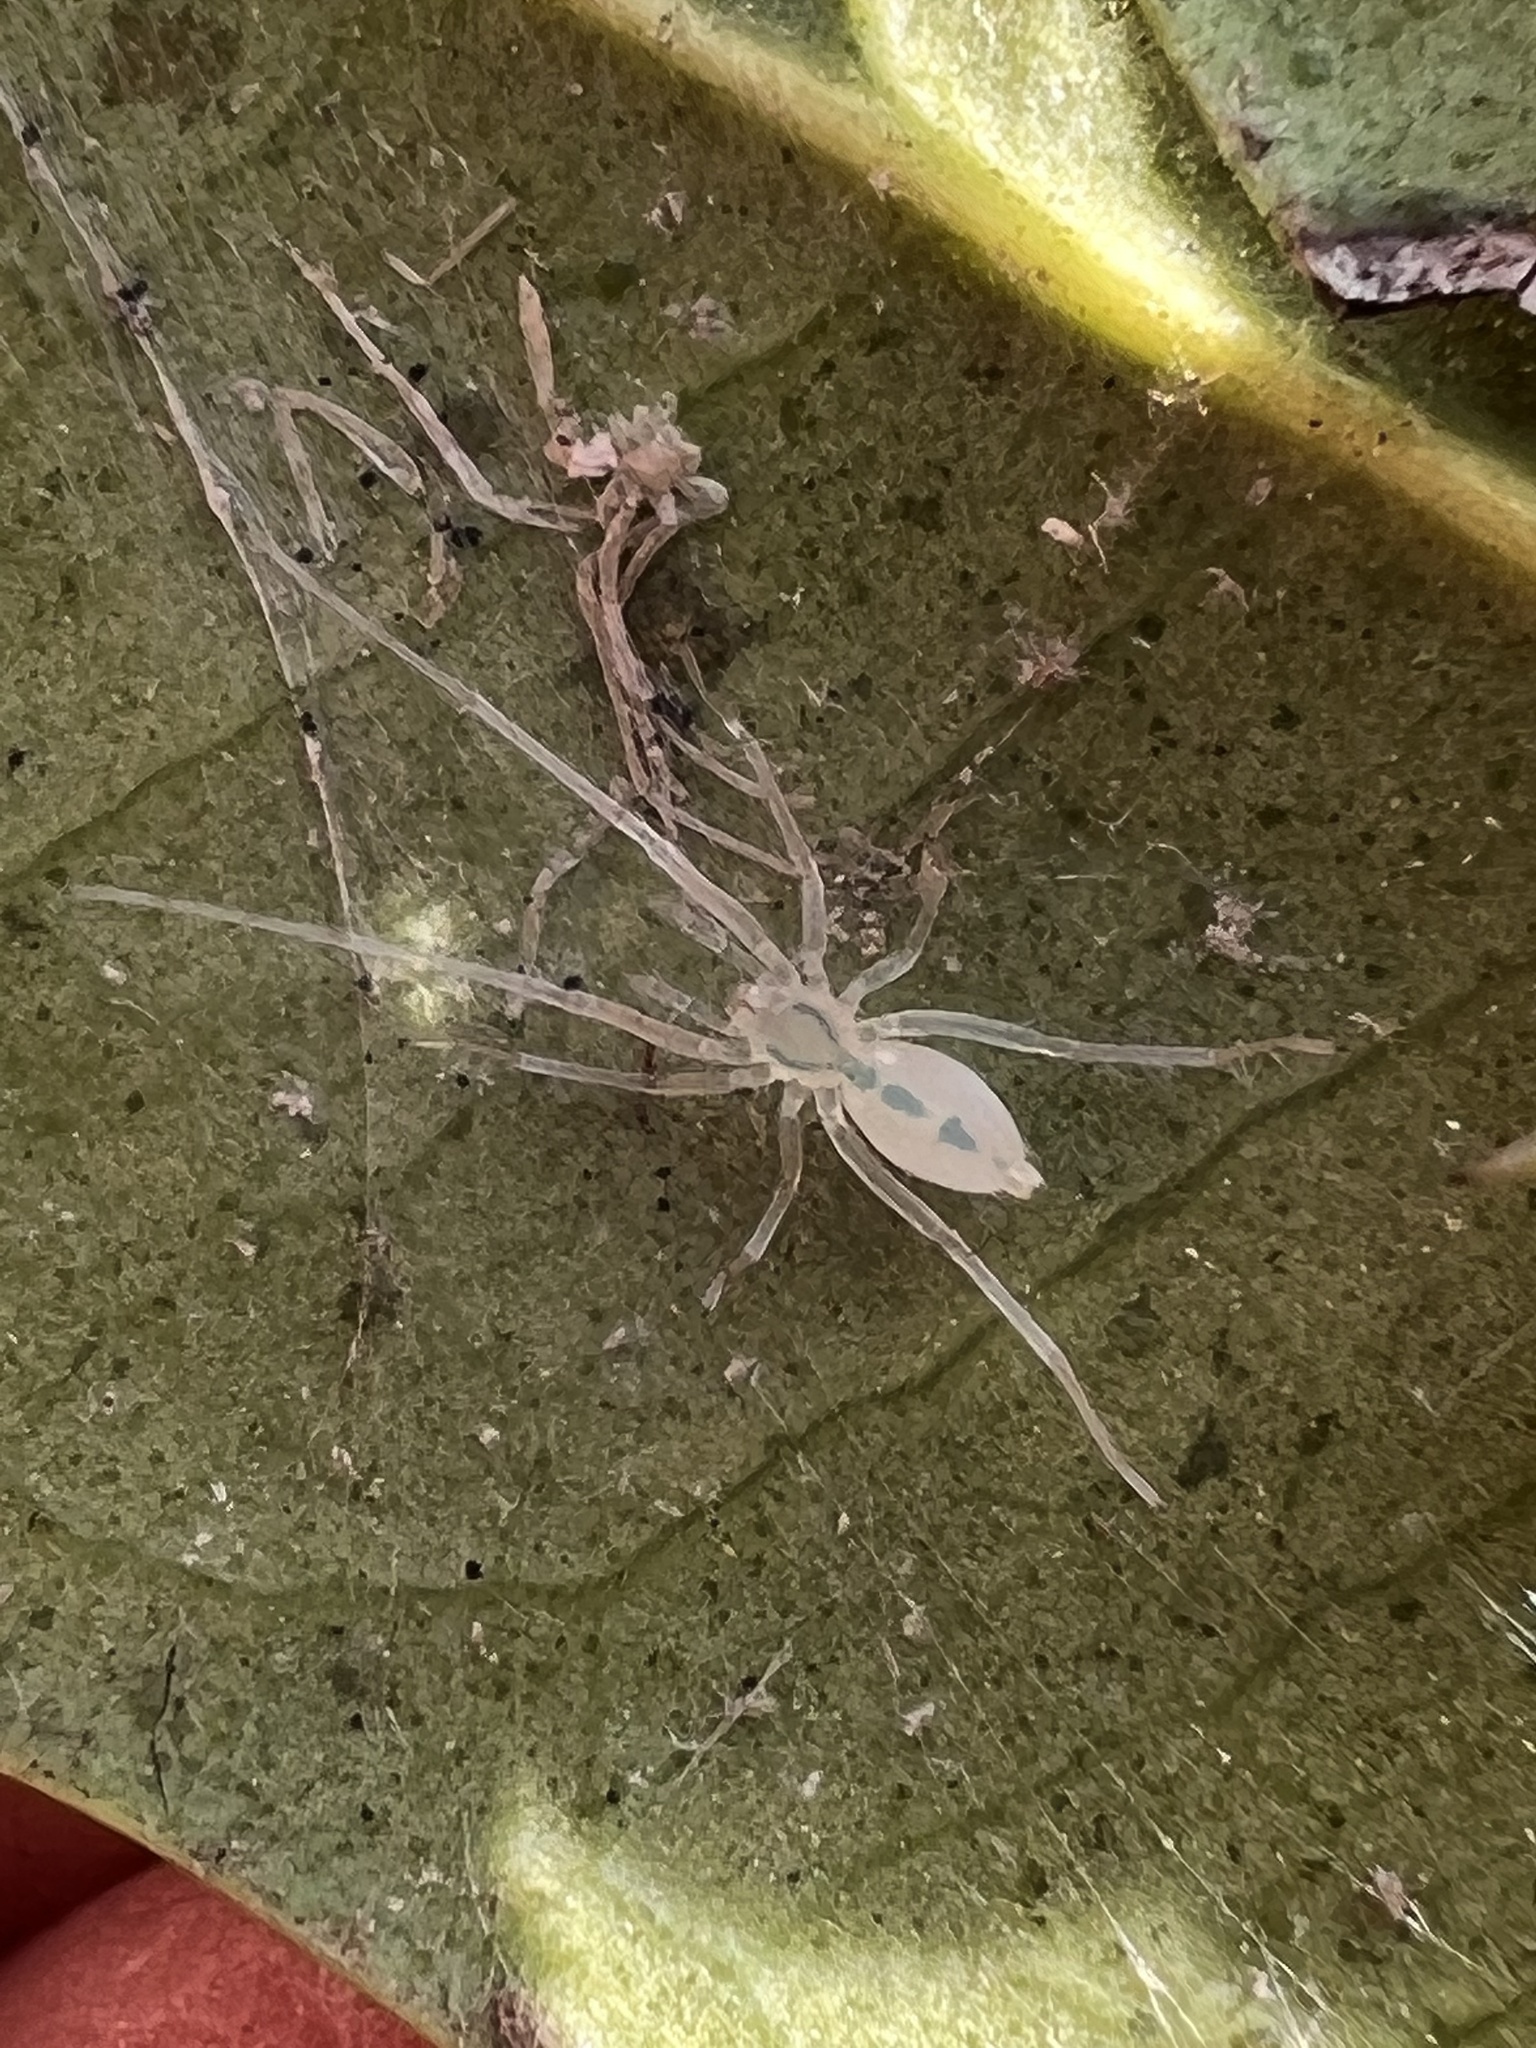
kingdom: Animalia
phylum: Arthropoda
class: Arachnida
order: Araneae
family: Anyphaenidae
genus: Wulfila
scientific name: Wulfila albens
